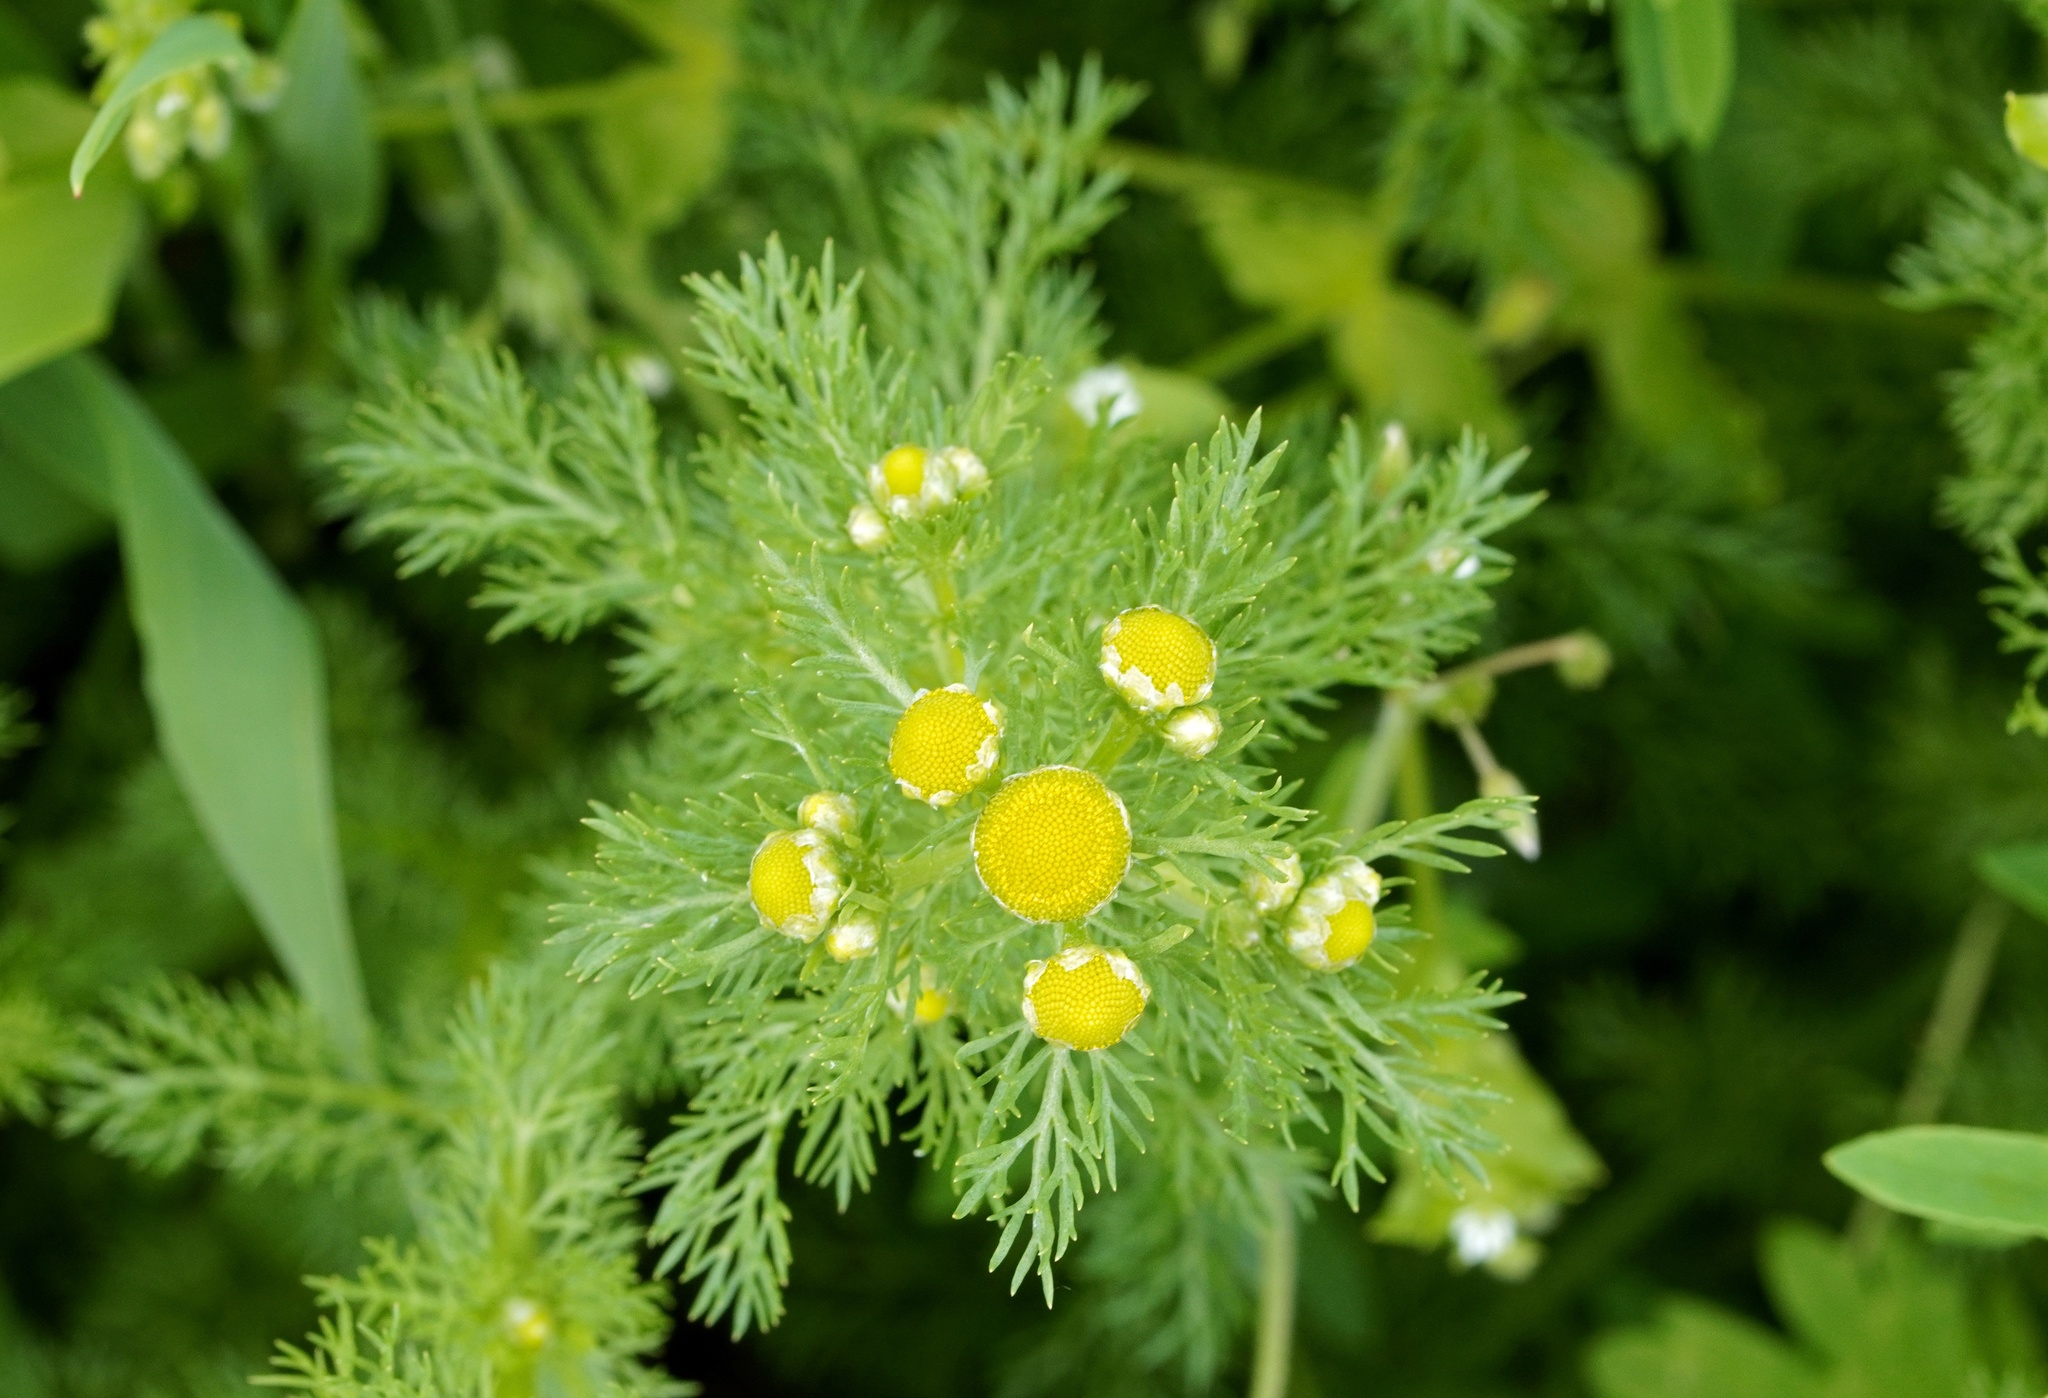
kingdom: Plantae
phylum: Tracheophyta
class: Magnoliopsida
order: Asterales
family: Asteraceae
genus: Matricaria
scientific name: Matricaria discoidea
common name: Disc mayweed
